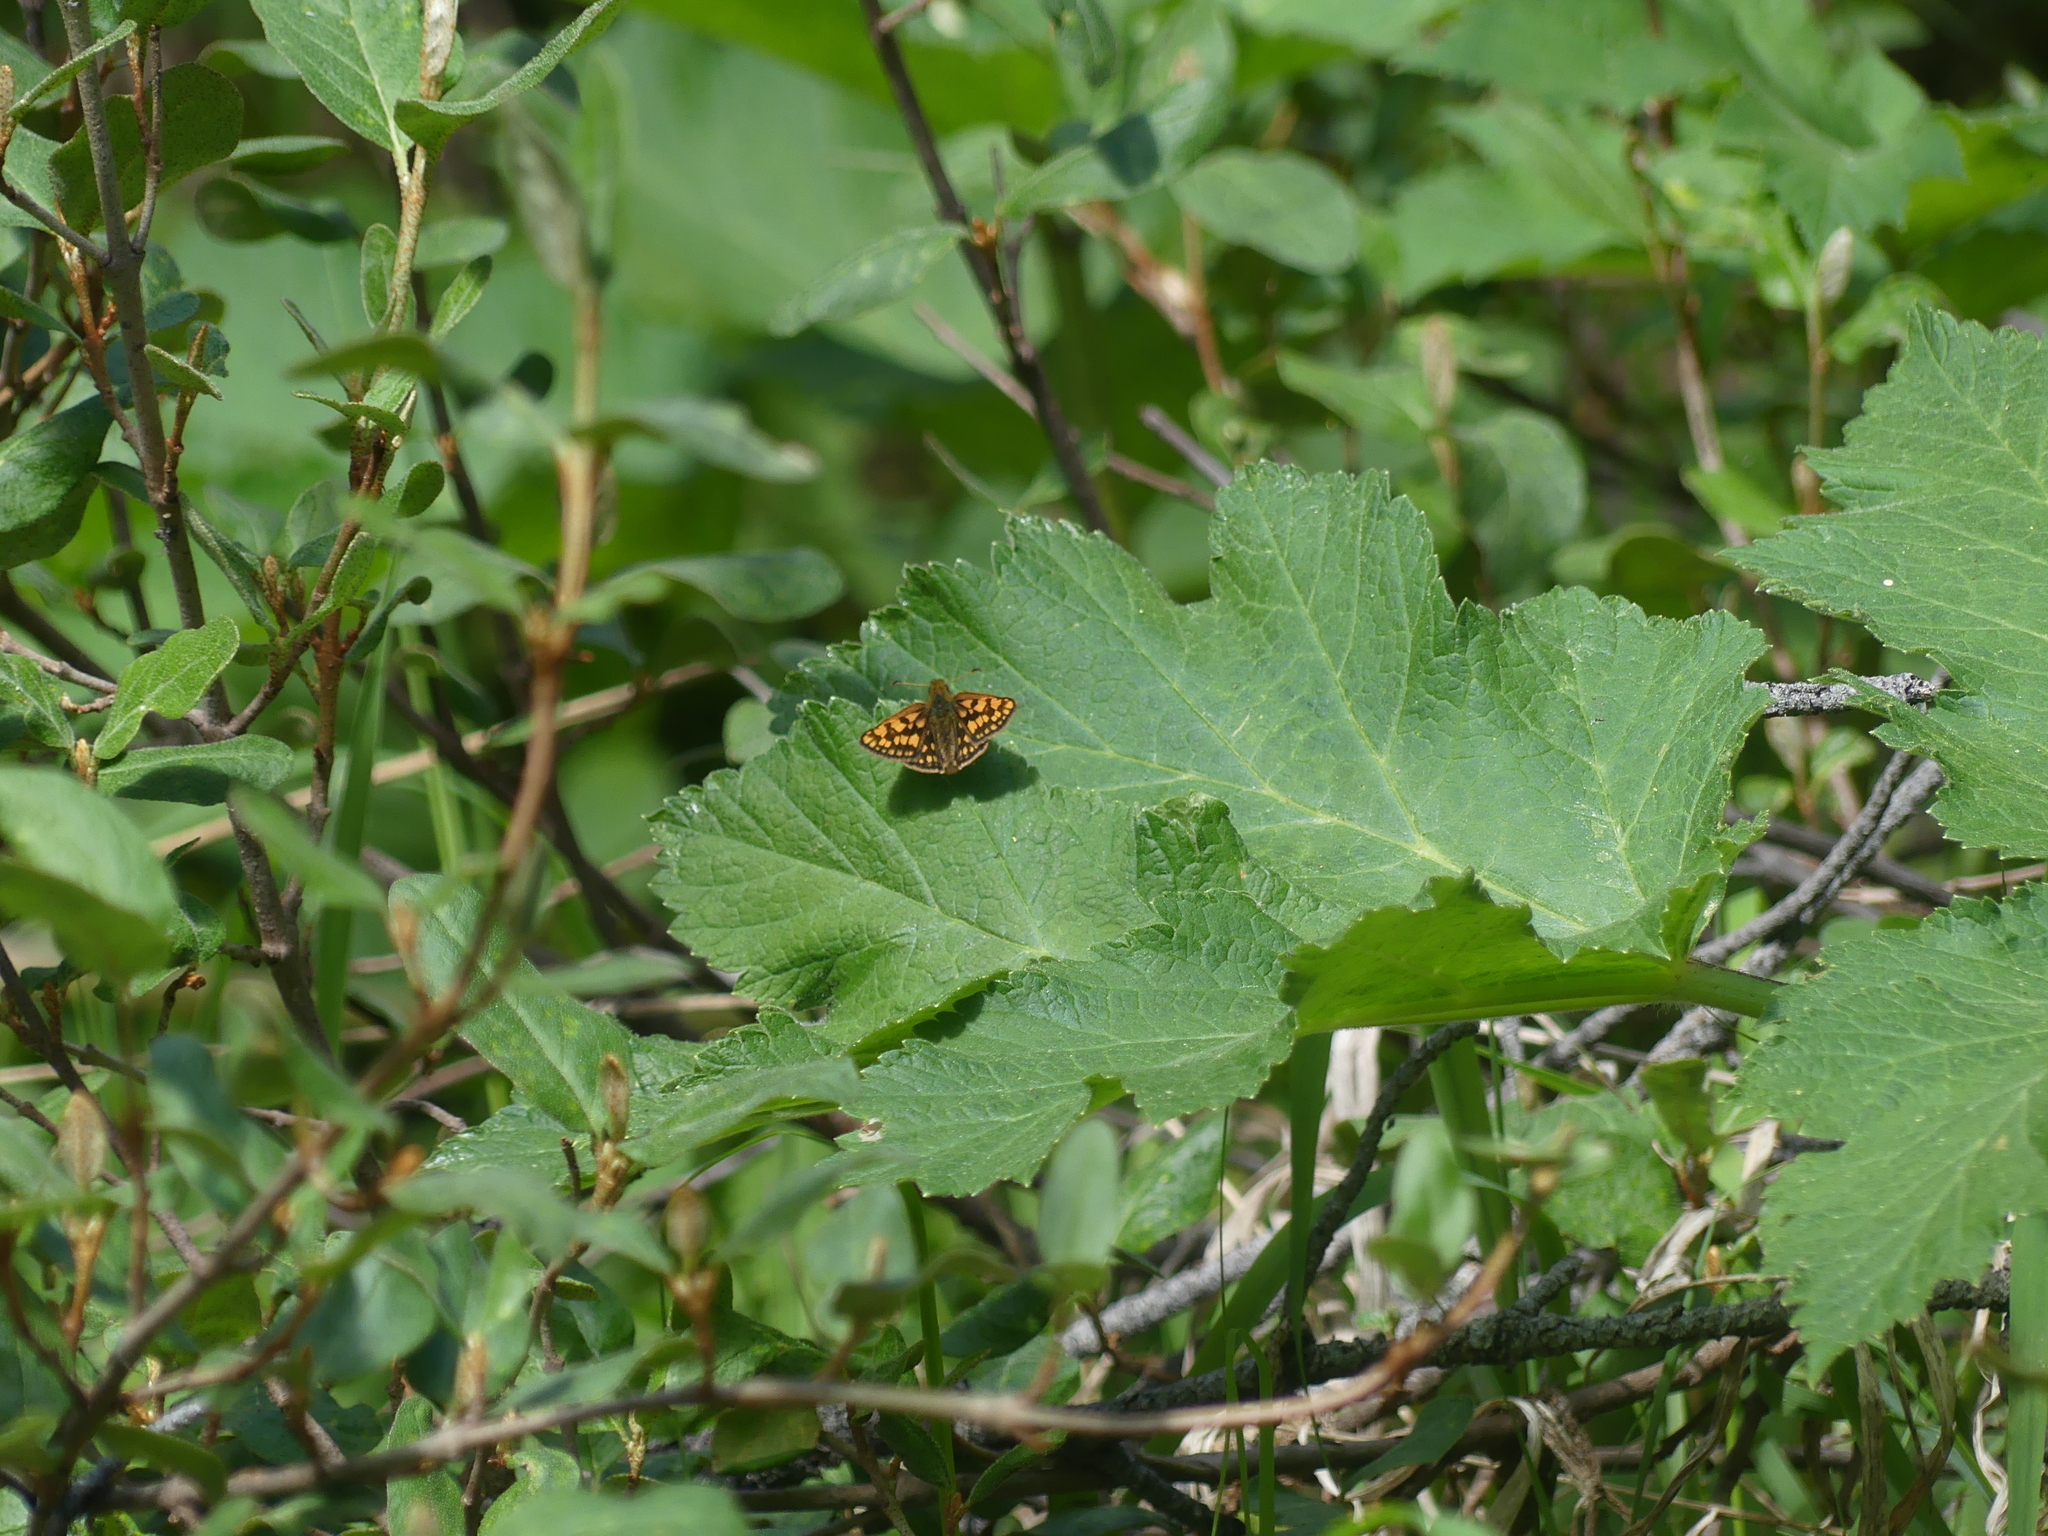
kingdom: Animalia
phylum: Arthropoda
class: Insecta
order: Lepidoptera
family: Hesperiidae
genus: Carterocephalus
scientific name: Carterocephalus skada
